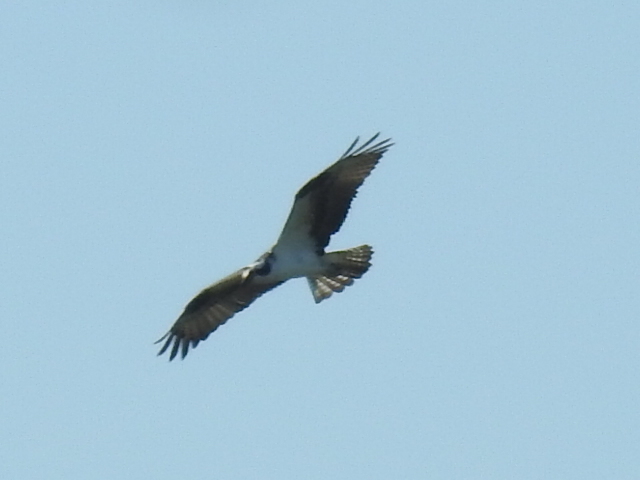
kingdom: Animalia
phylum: Chordata
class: Aves
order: Accipitriformes
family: Pandionidae
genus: Pandion
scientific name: Pandion haliaetus
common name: Osprey
